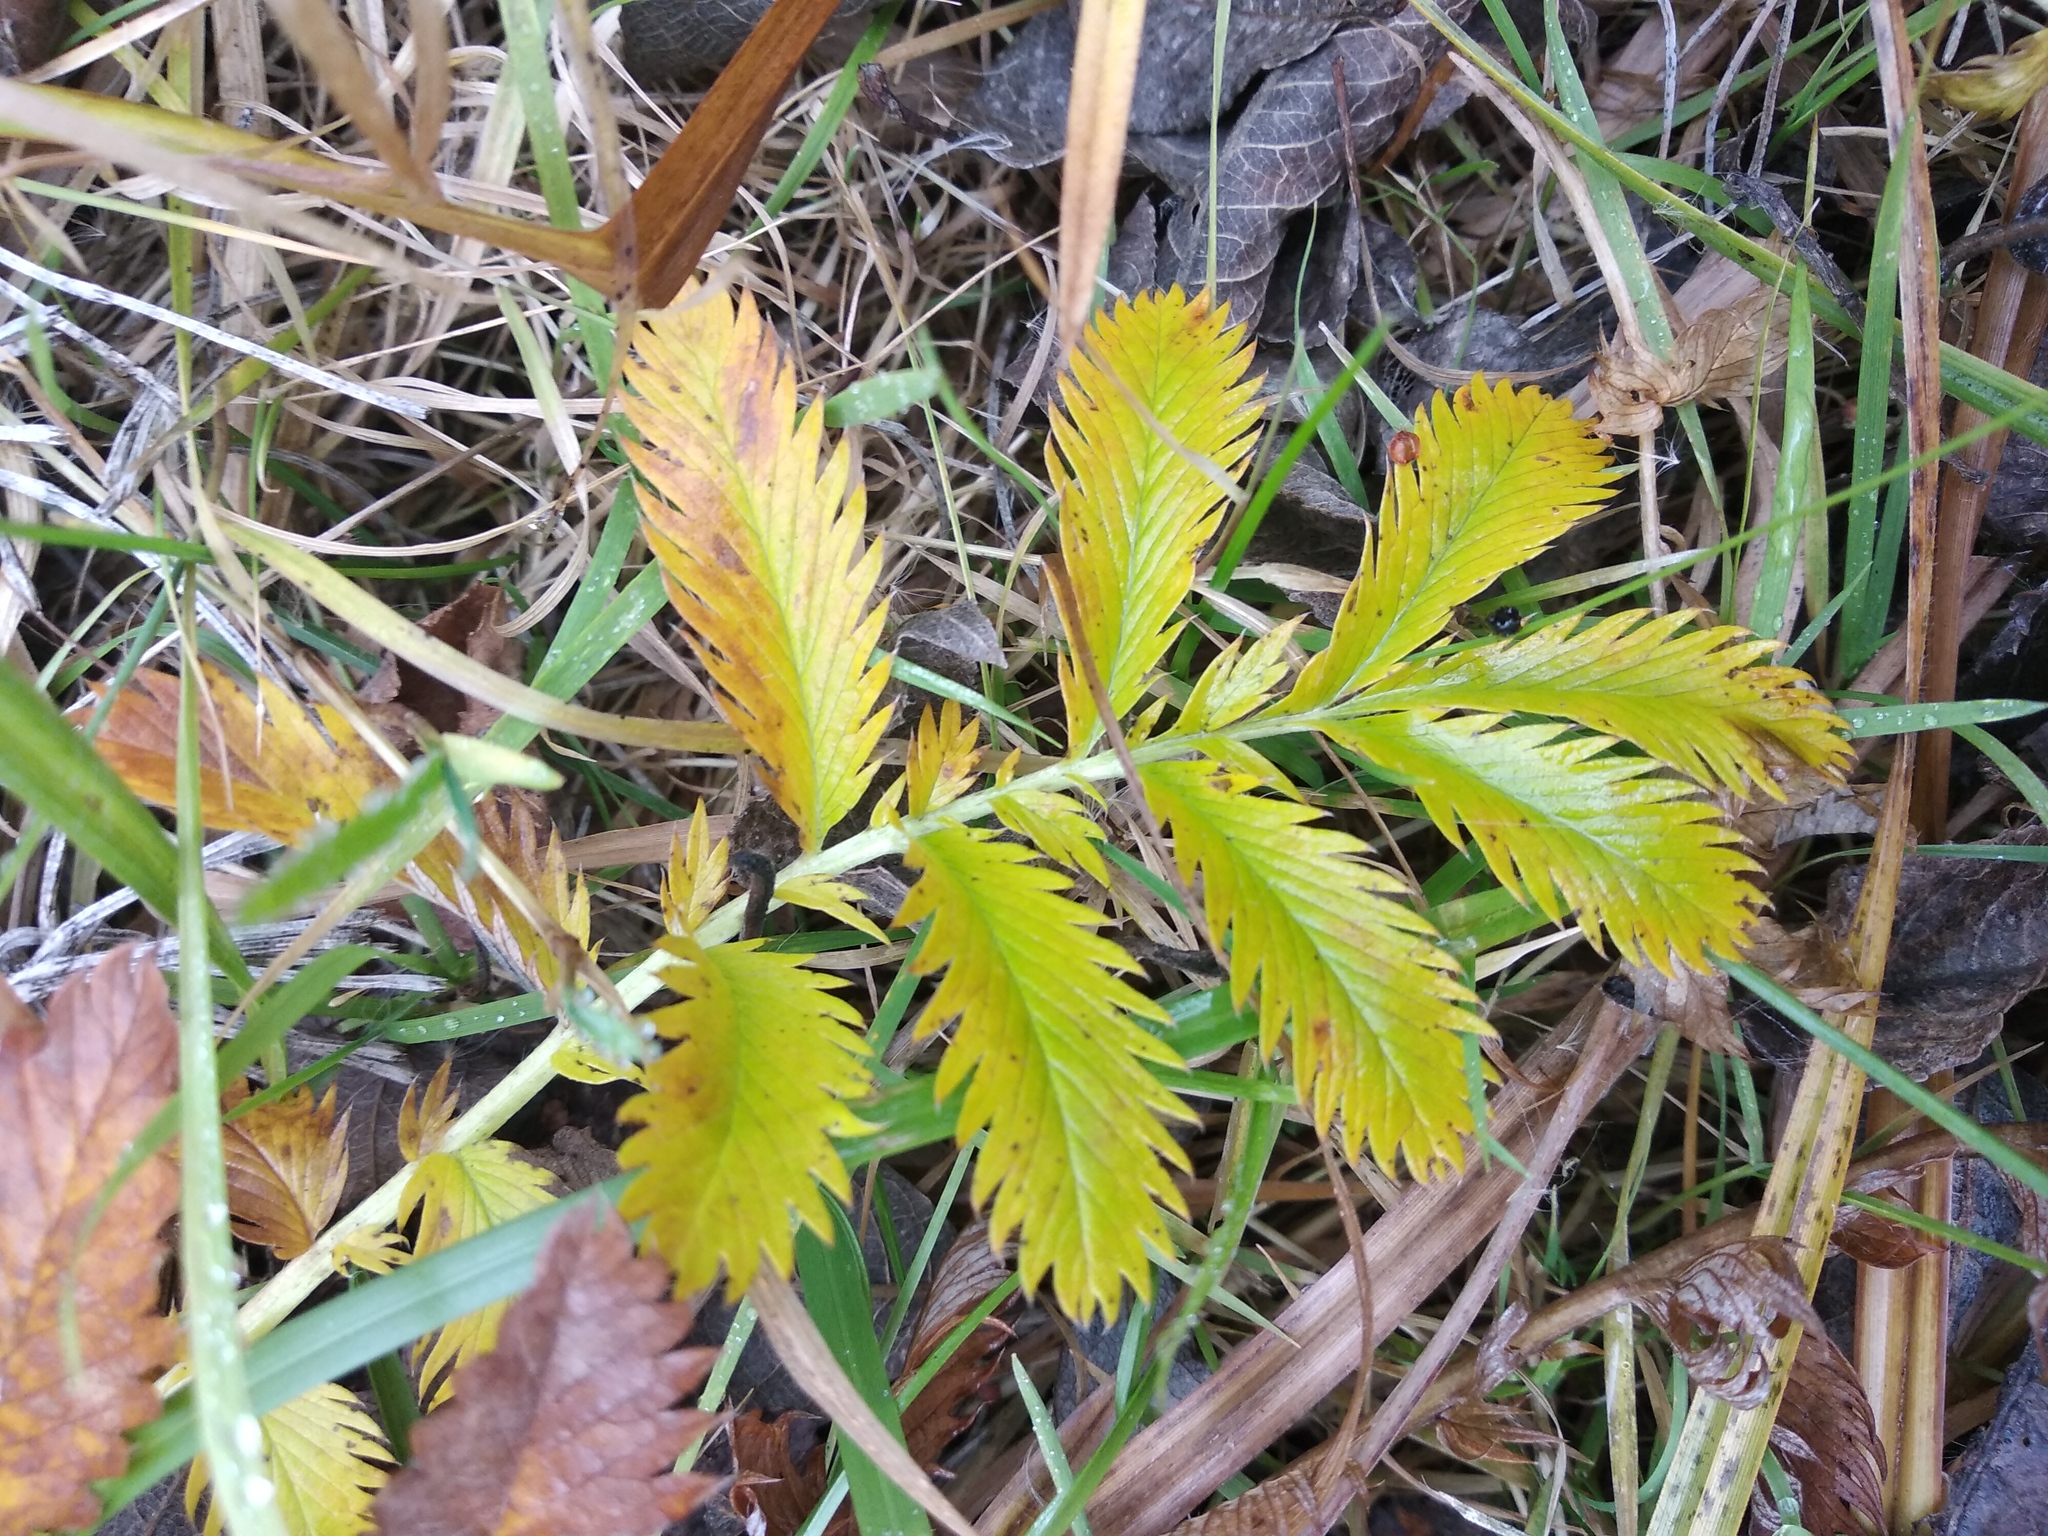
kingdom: Plantae
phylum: Tracheophyta
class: Magnoliopsida
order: Rosales
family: Rosaceae
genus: Argentina
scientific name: Argentina anserina
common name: Common silverweed
